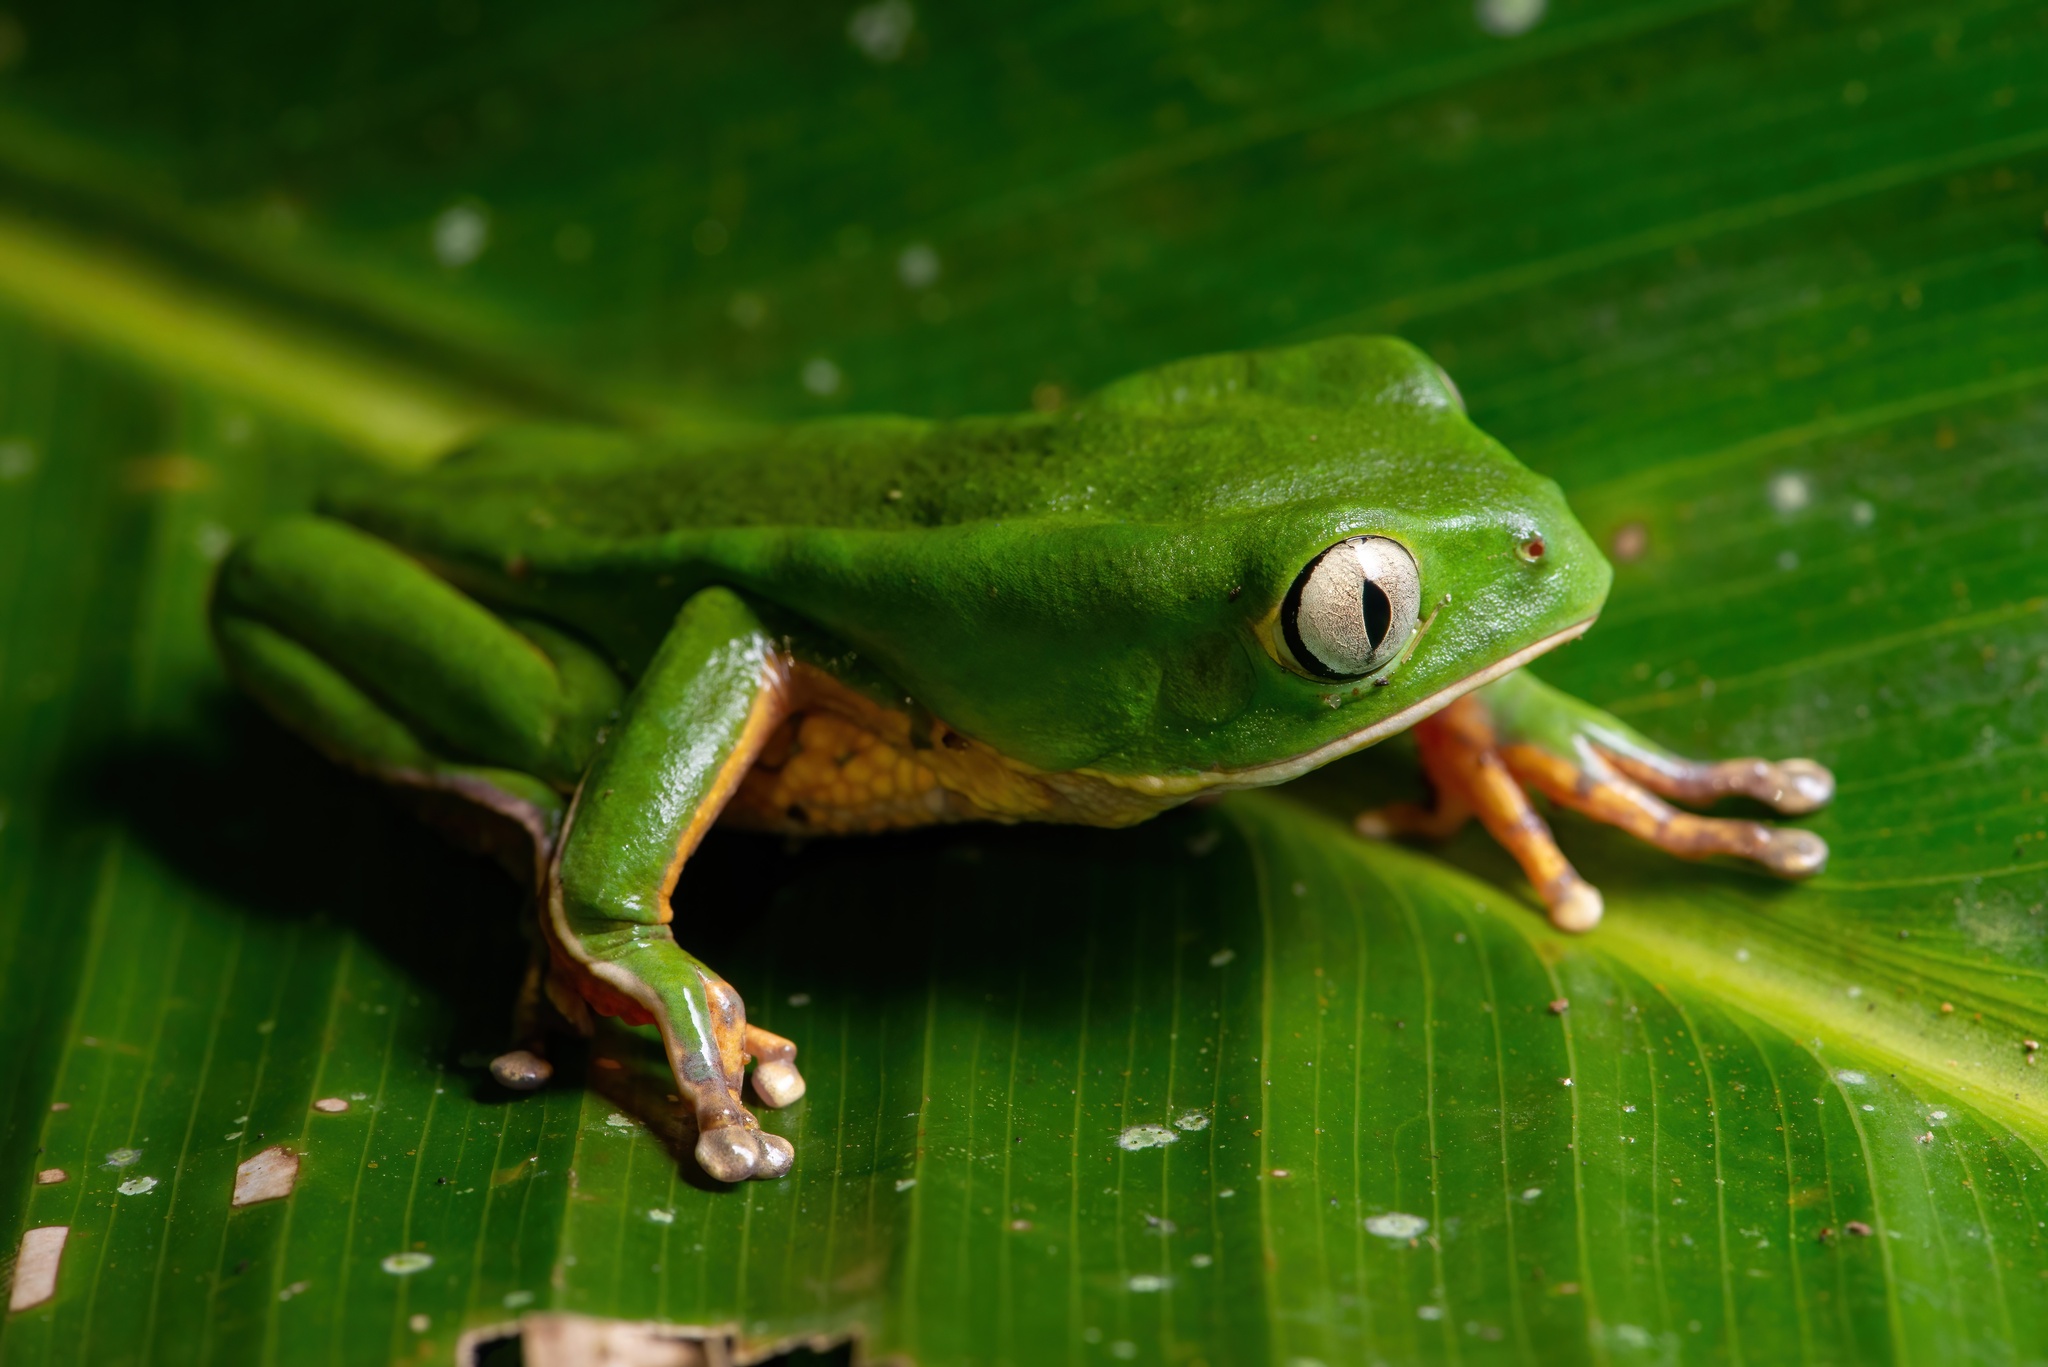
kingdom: Animalia
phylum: Chordata
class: Amphibia
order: Anura
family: Phyllomedusidae
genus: Phyllomedusa
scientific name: Phyllomedusa distincta
